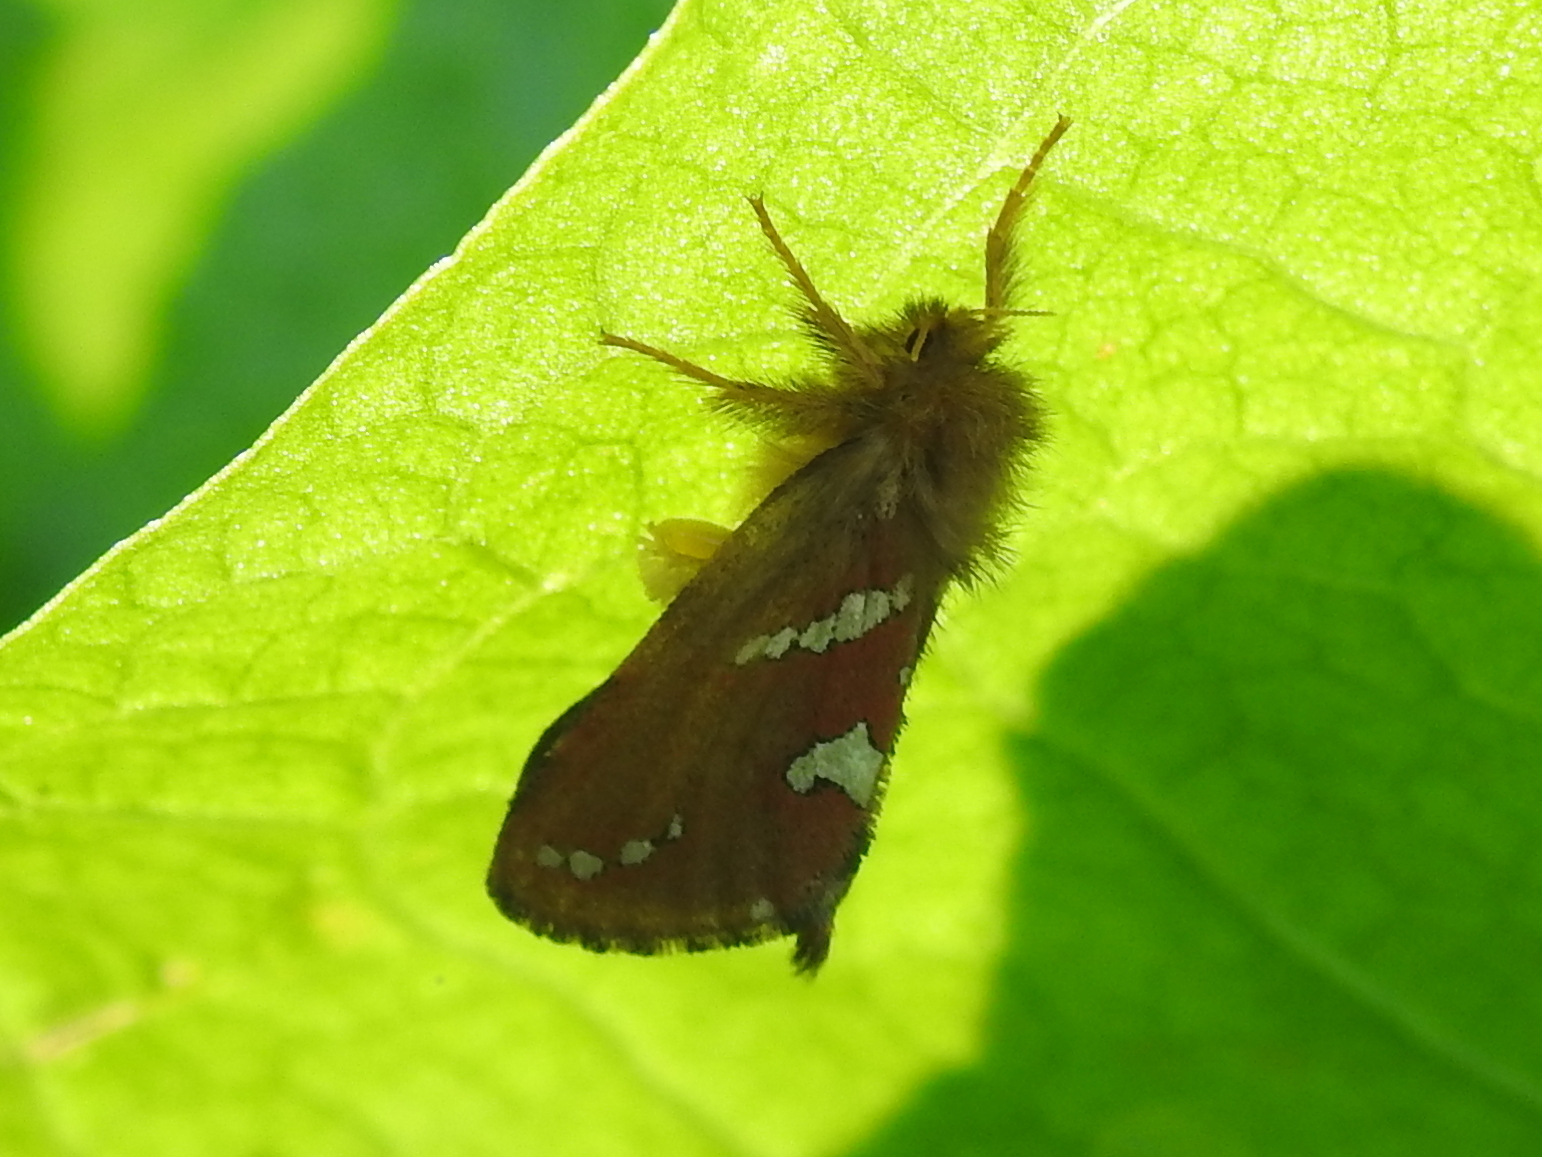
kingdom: Animalia
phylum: Arthropoda
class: Insecta
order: Lepidoptera
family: Hepialidae
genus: Phymatopus
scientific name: Phymatopus hecta
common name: Gold swift
